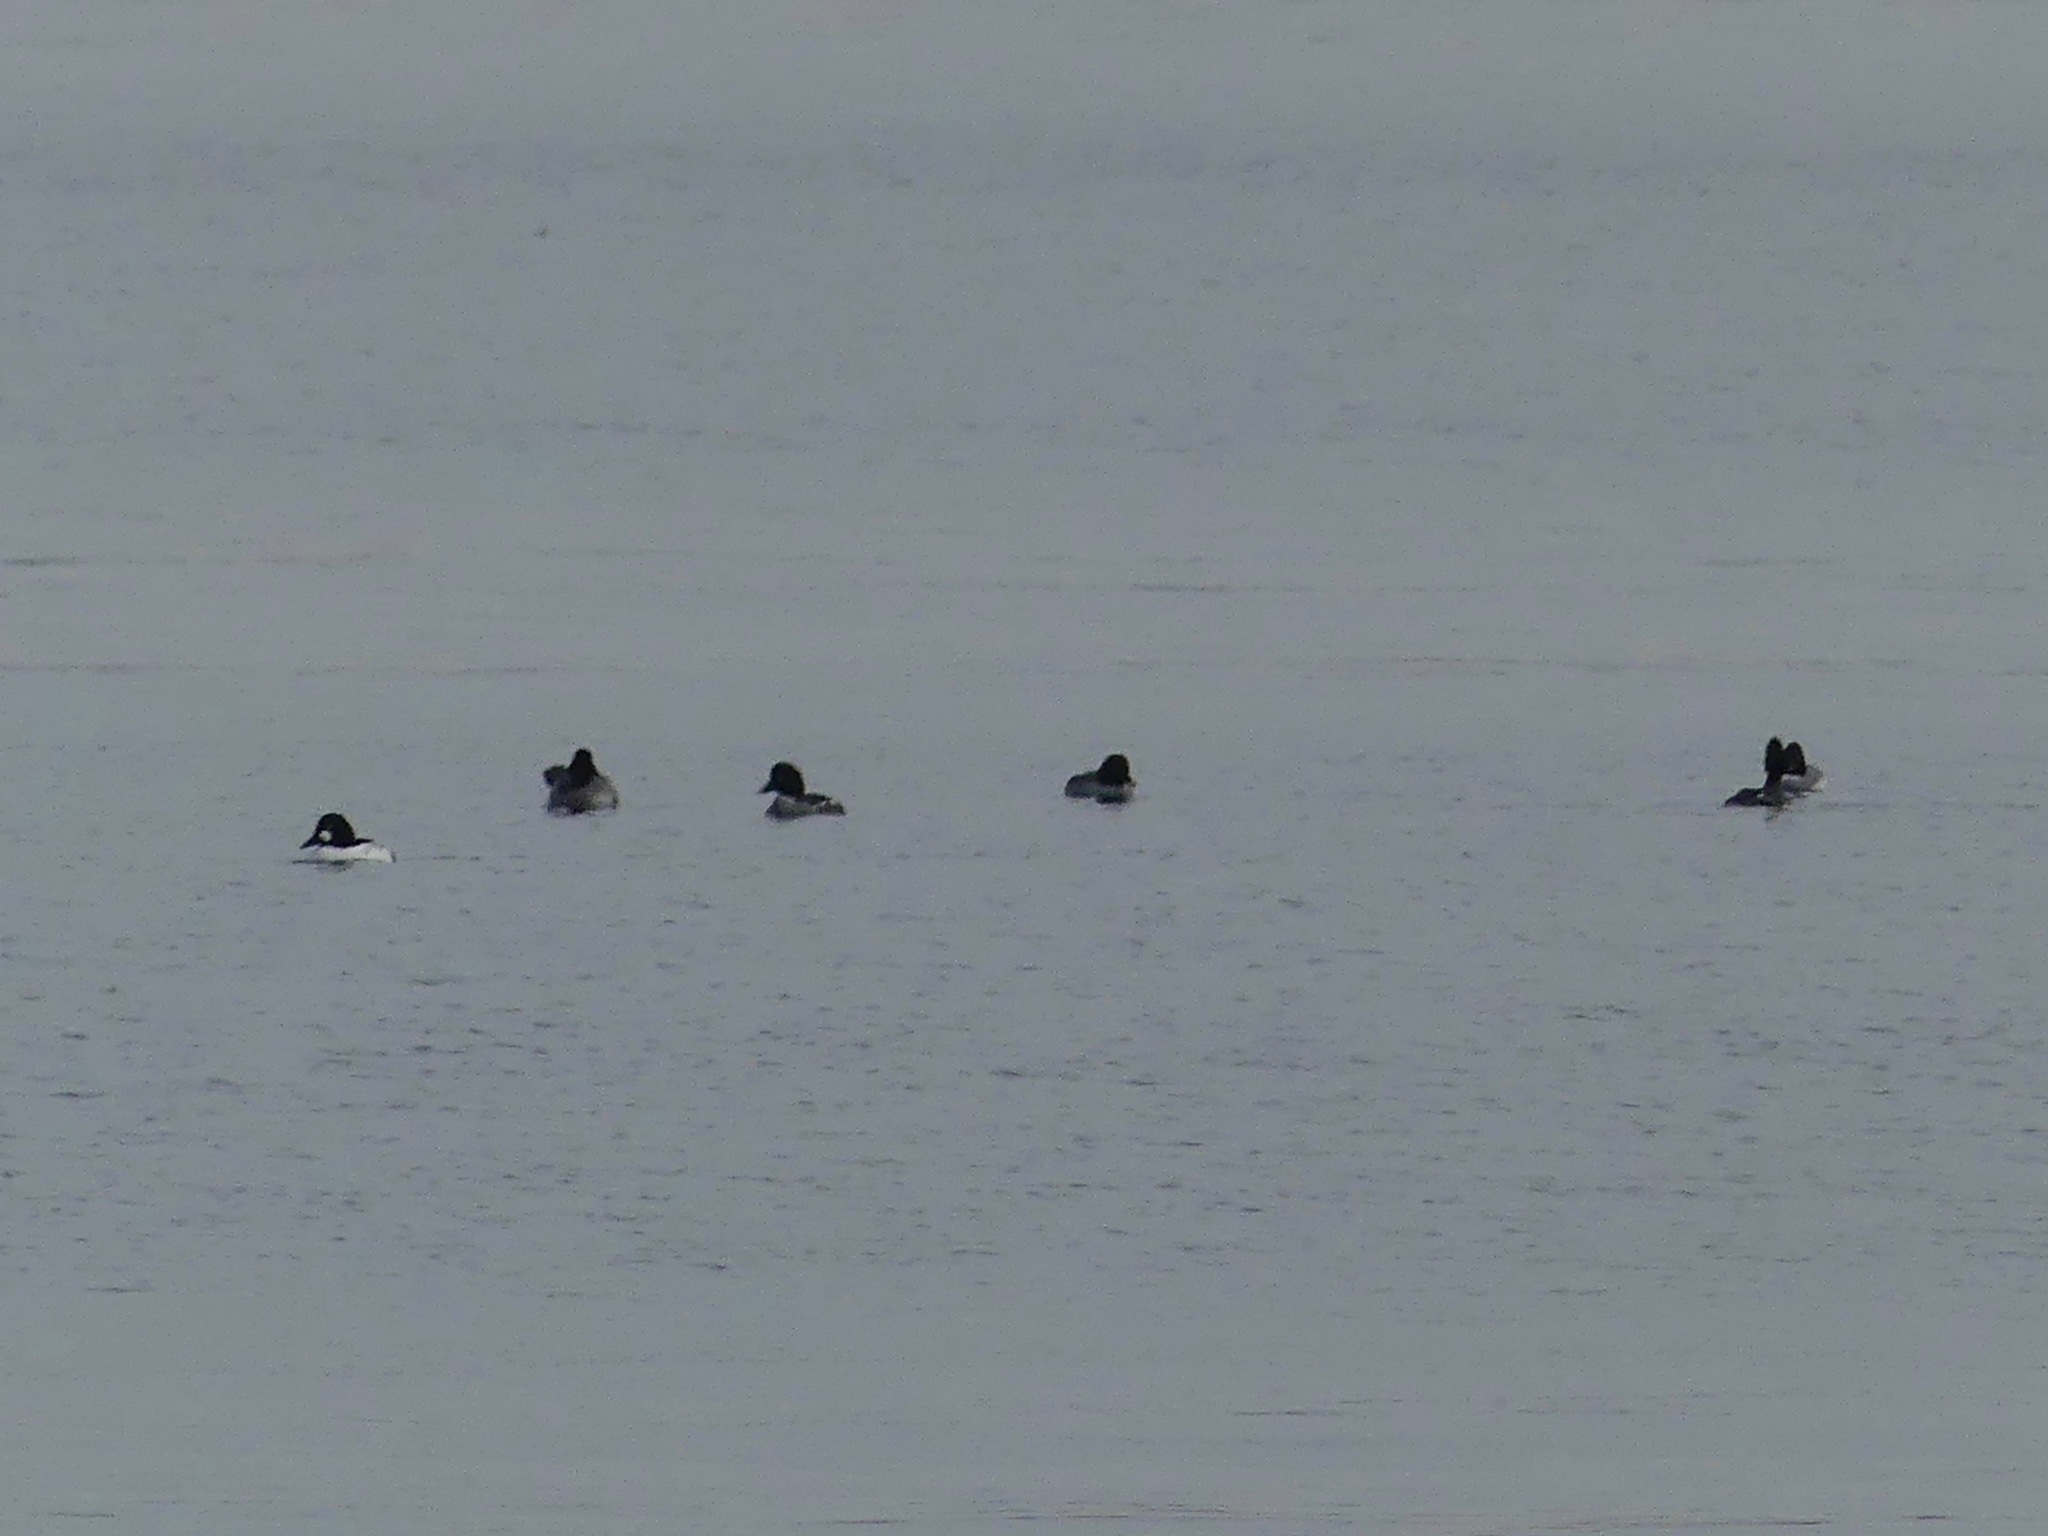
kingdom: Animalia
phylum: Chordata
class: Aves
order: Anseriformes
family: Anatidae
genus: Bucephala
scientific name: Bucephala clangula
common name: Common goldeneye
